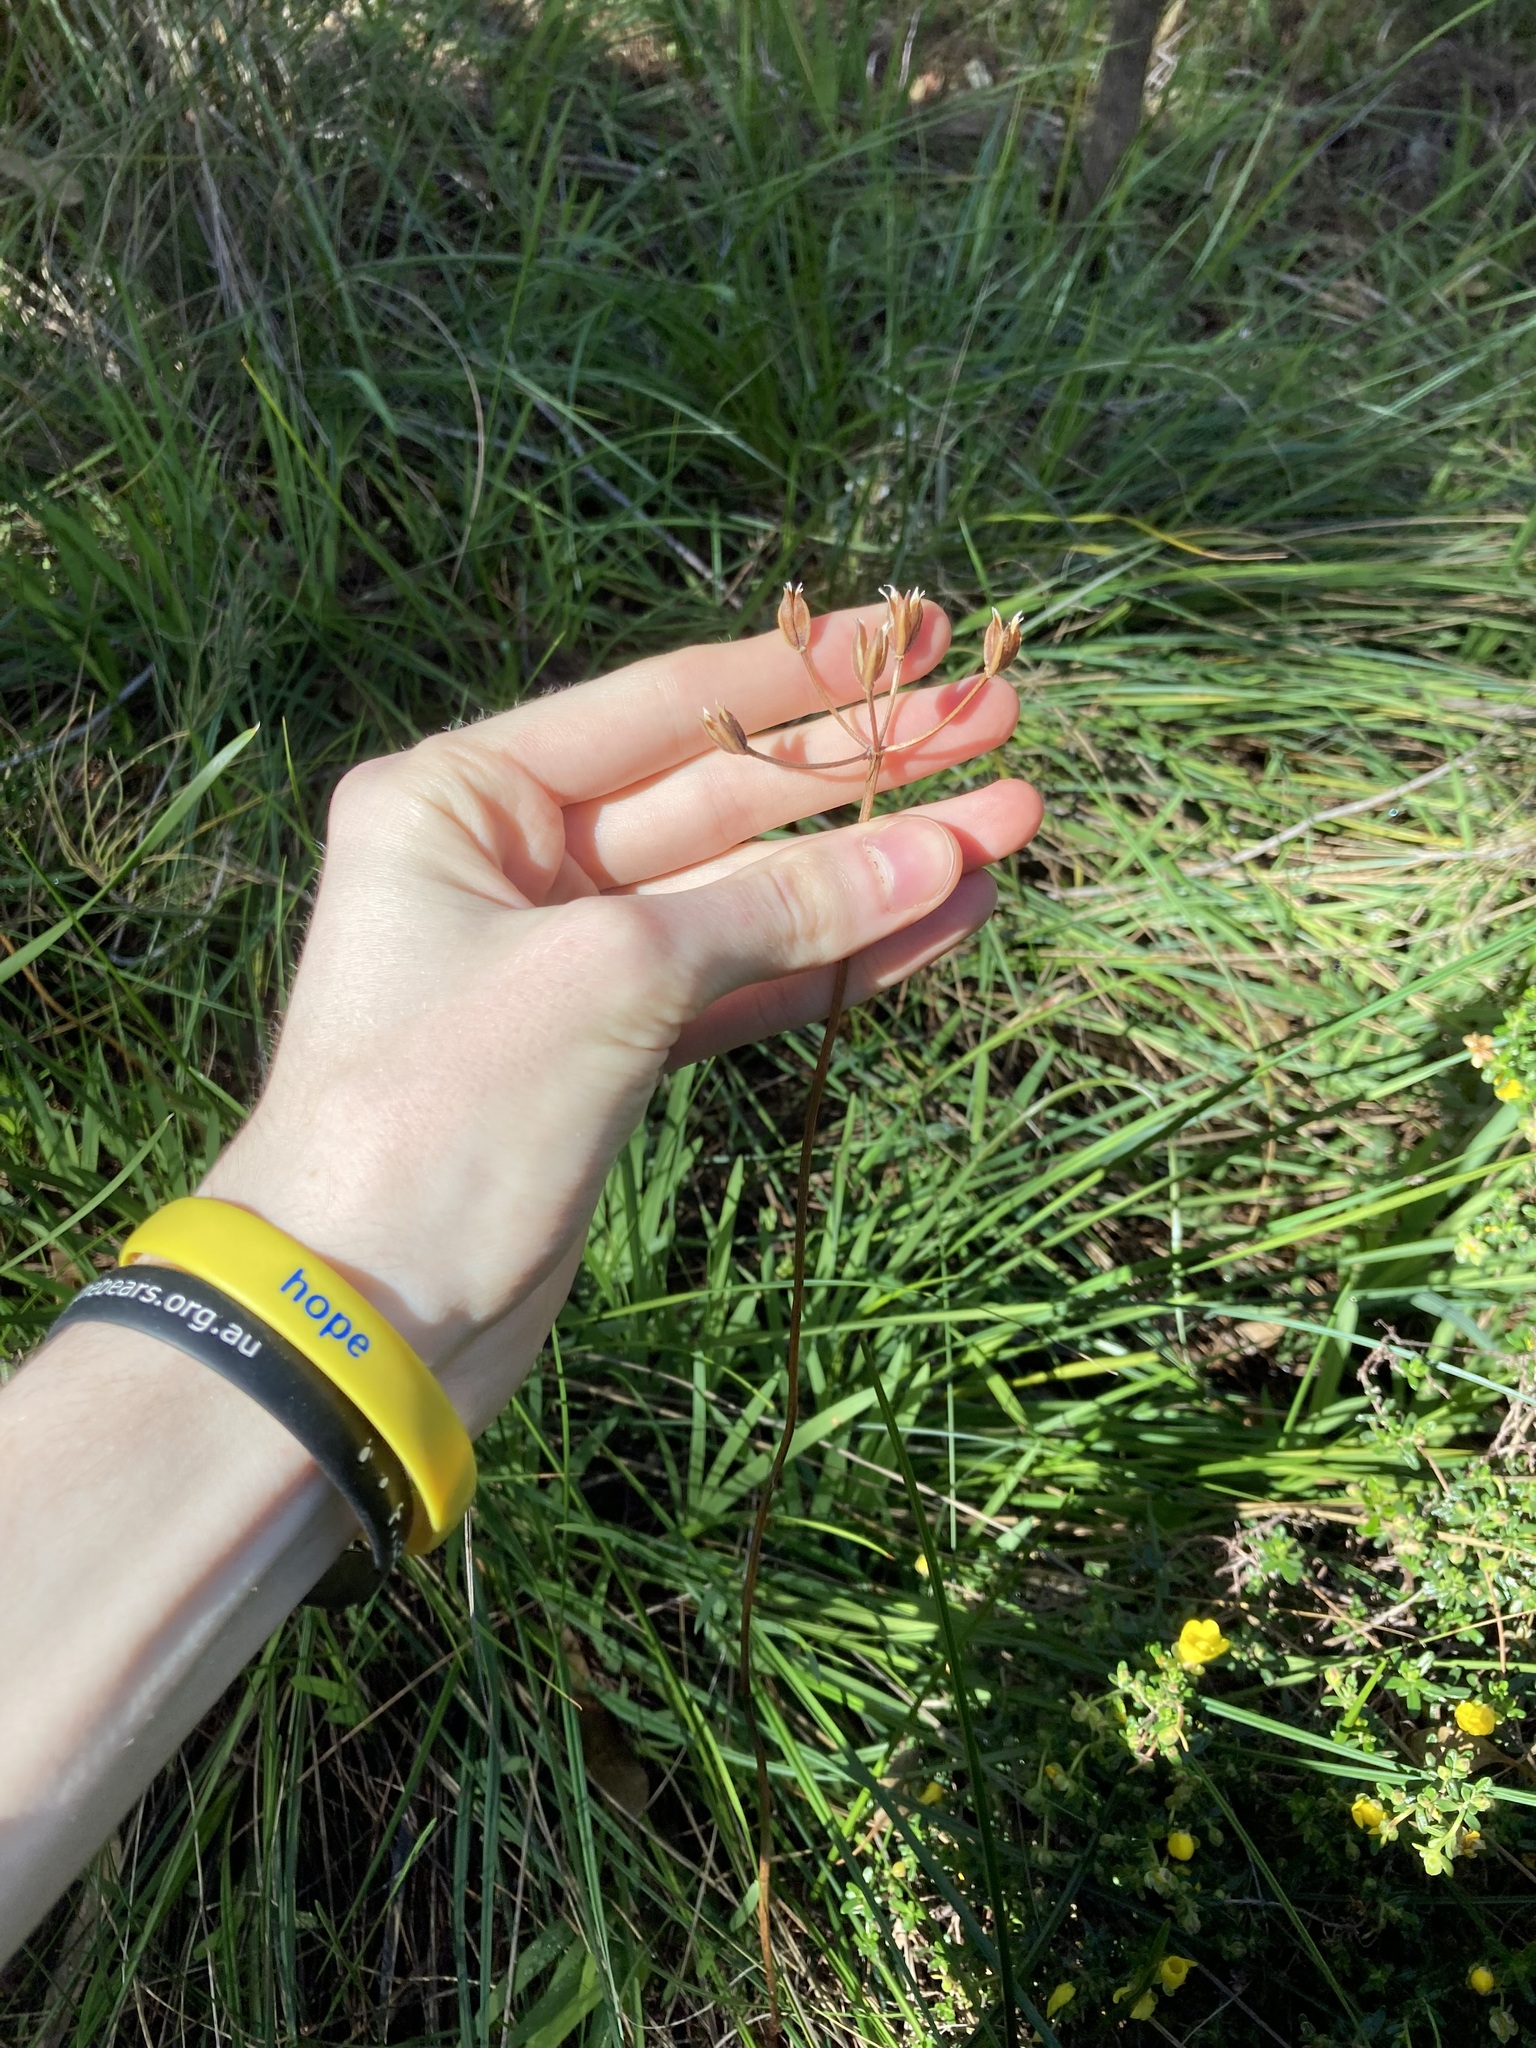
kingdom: Plantae
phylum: Tracheophyta
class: Liliopsida
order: Liliales
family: Colchicaceae
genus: Burchardia
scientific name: Burchardia congesta
